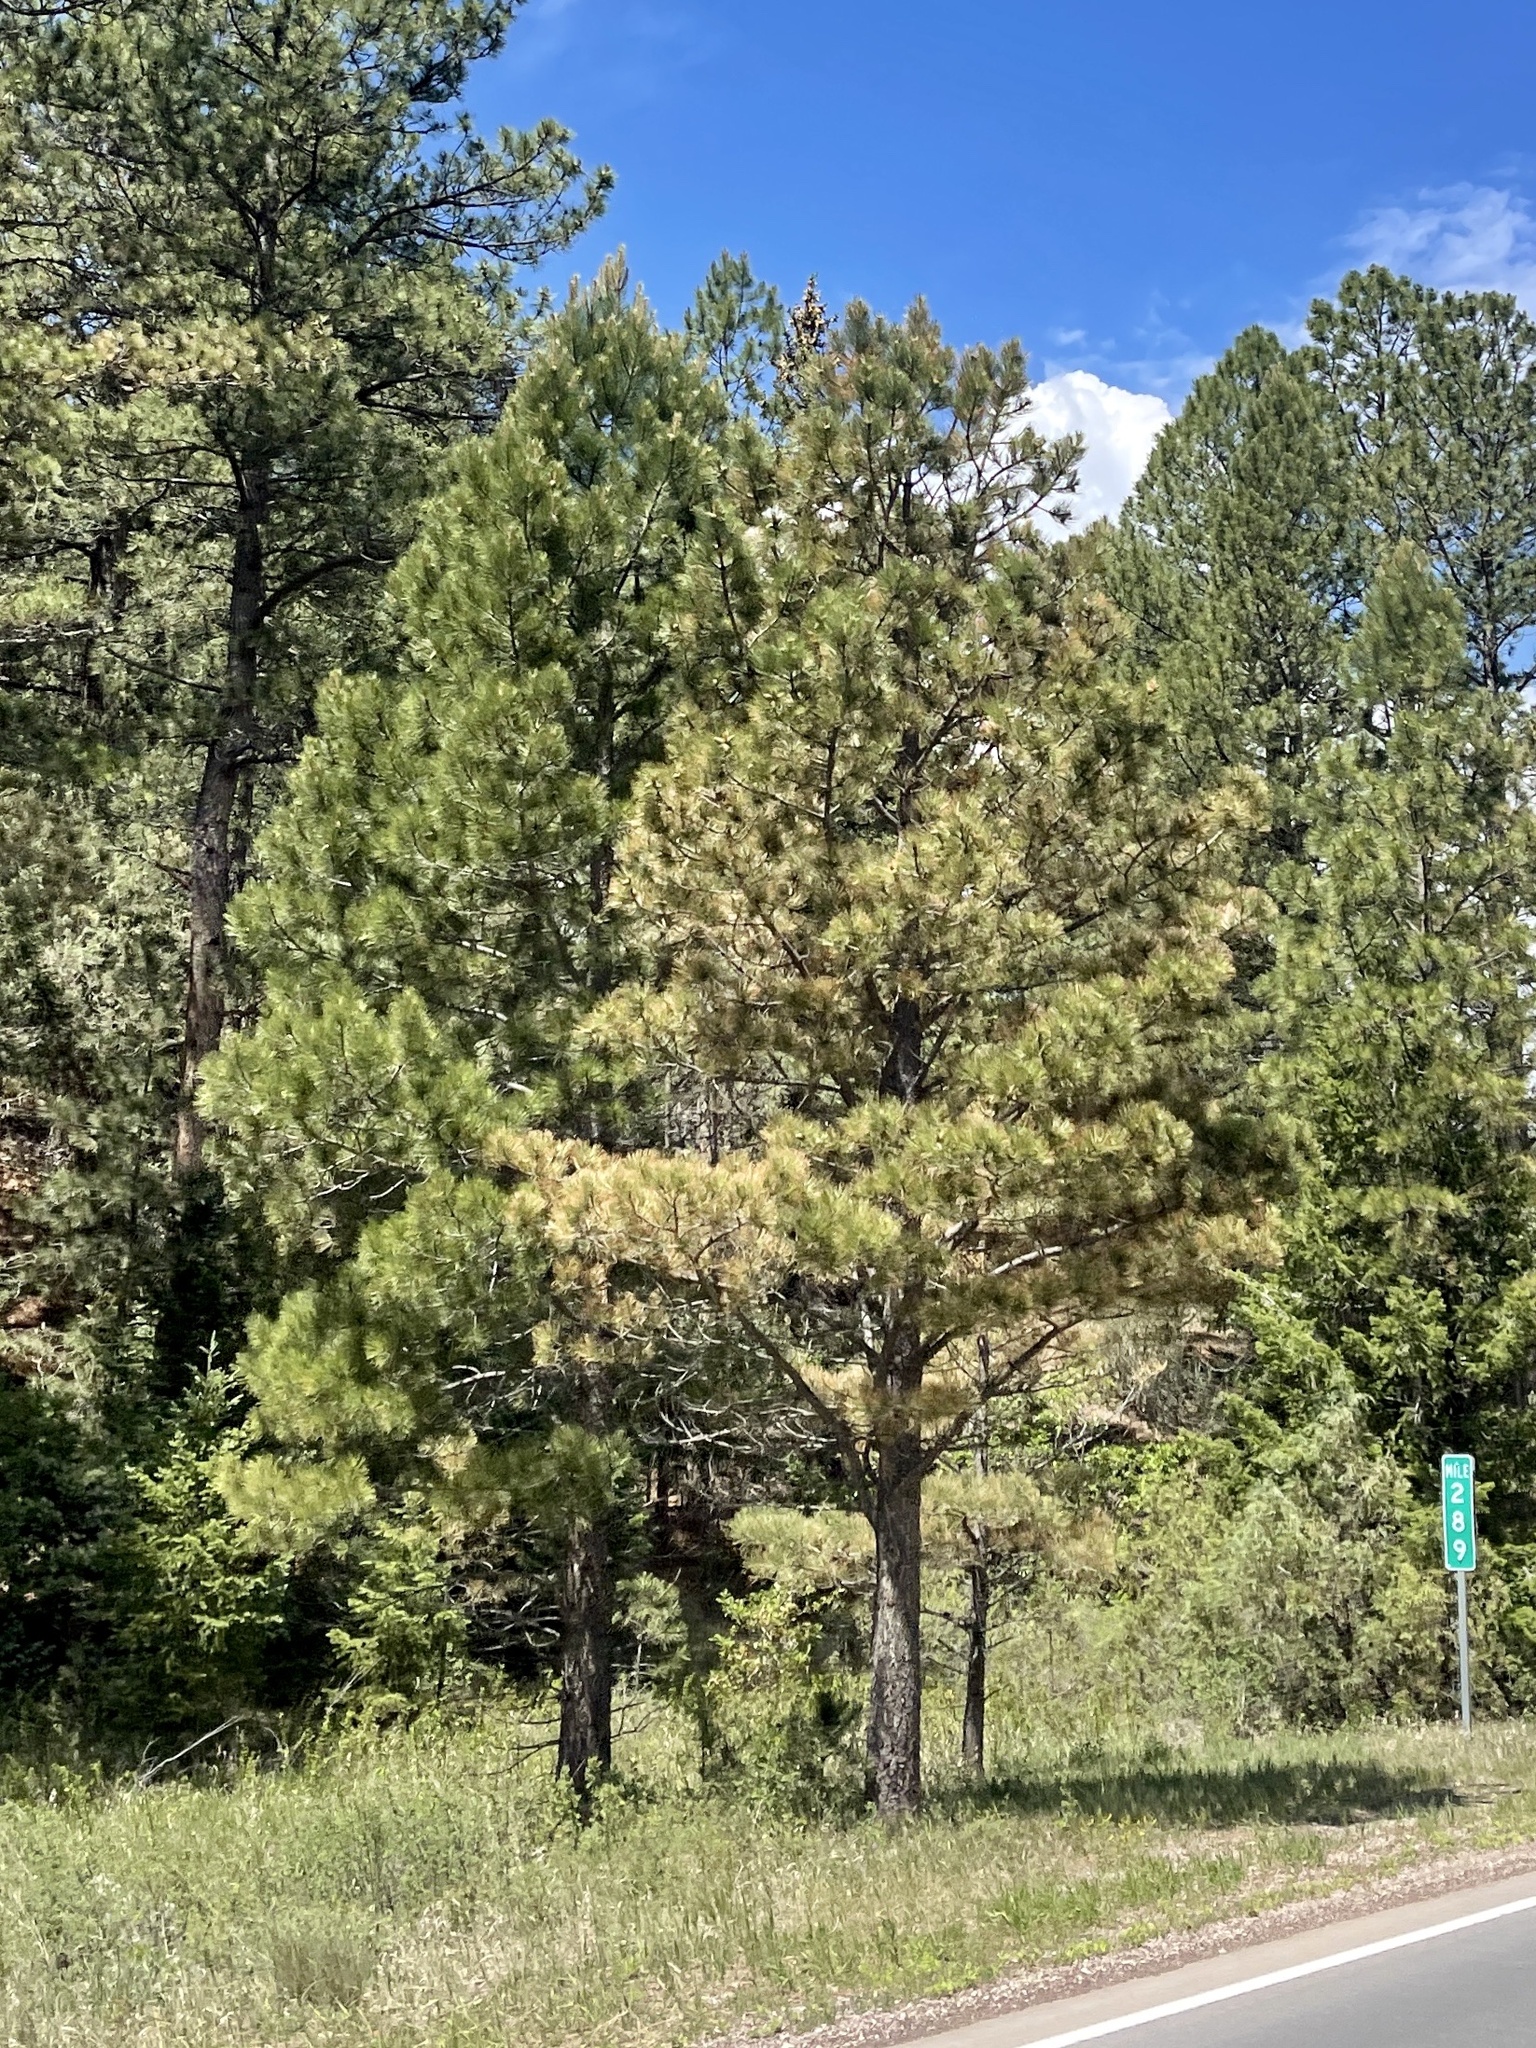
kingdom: Plantae
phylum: Tracheophyta
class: Pinopsida
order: Pinales
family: Pinaceae
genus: Pinus
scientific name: Pinus ponderosa
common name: Western yellow-pine
